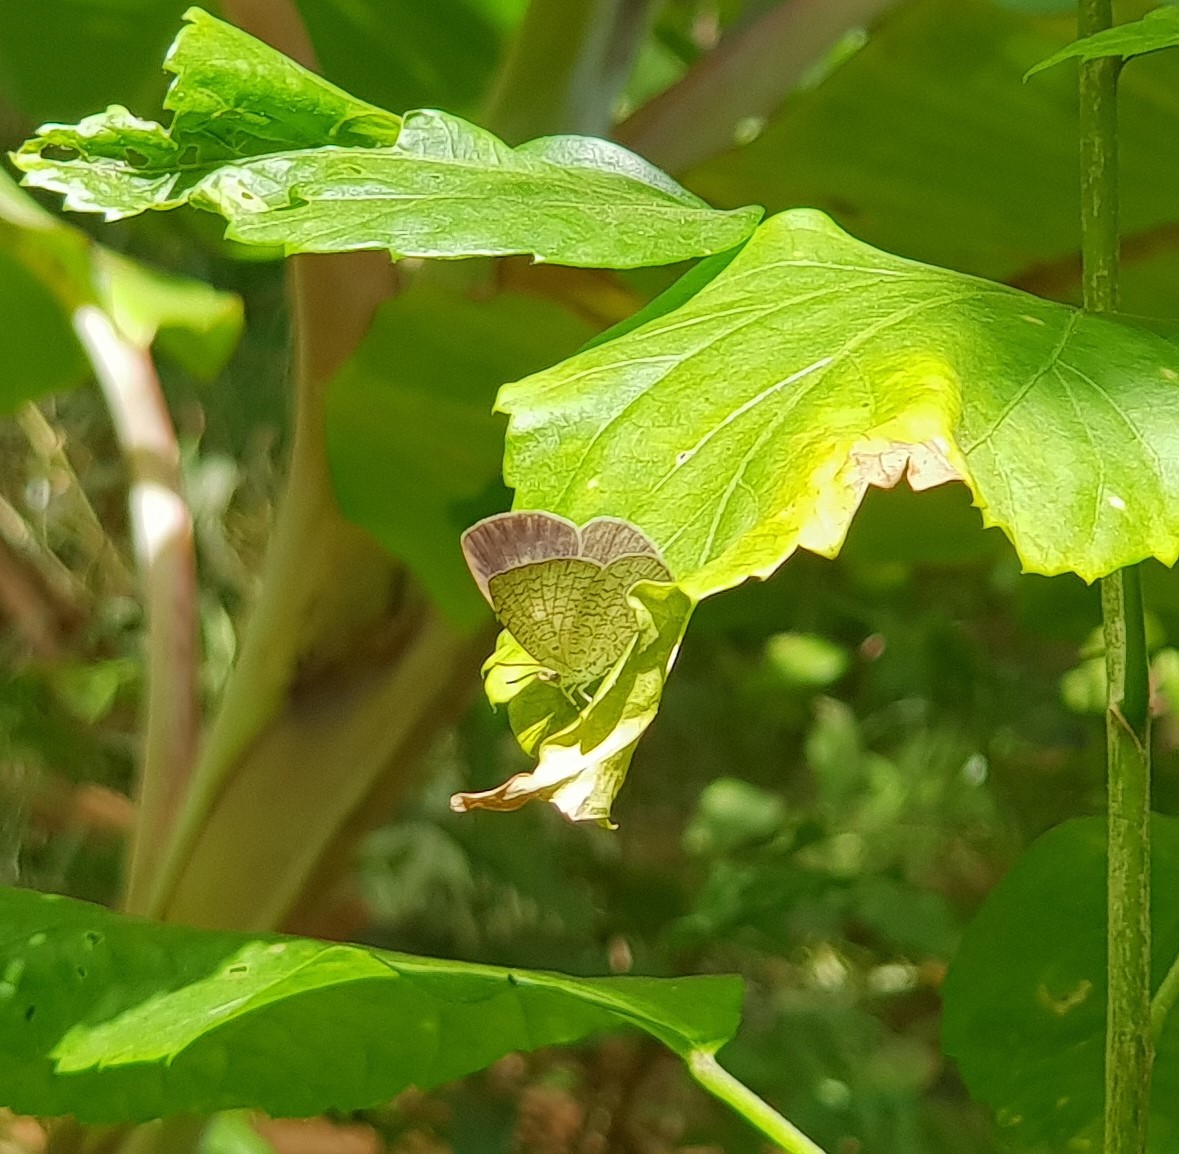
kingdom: Animalia
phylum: Arthropoda
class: Insecta
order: Lepidoptera
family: Lycaenidae
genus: Spalgis
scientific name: Spalgis epius
